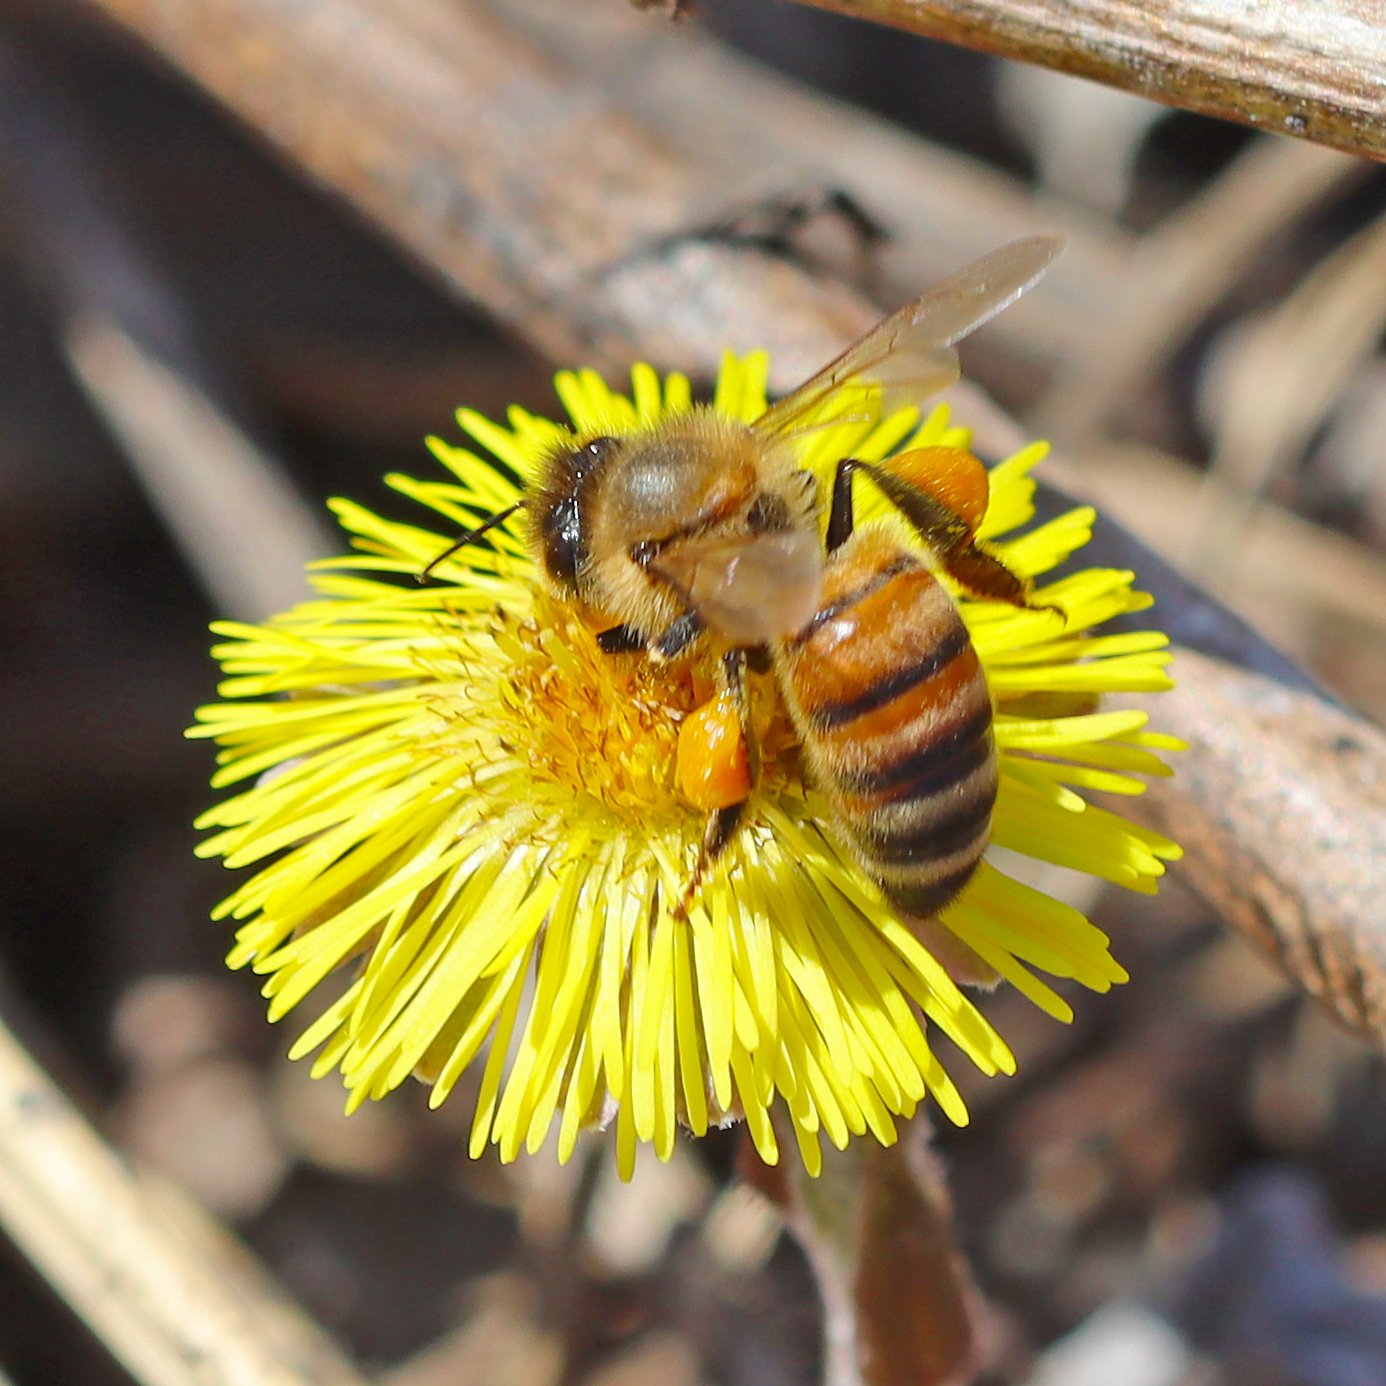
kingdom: Animalia
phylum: Arthropoda
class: Insecta
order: Hymenoptera
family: Apidae
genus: Apis
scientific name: Apis mellifera
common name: Honey bee
